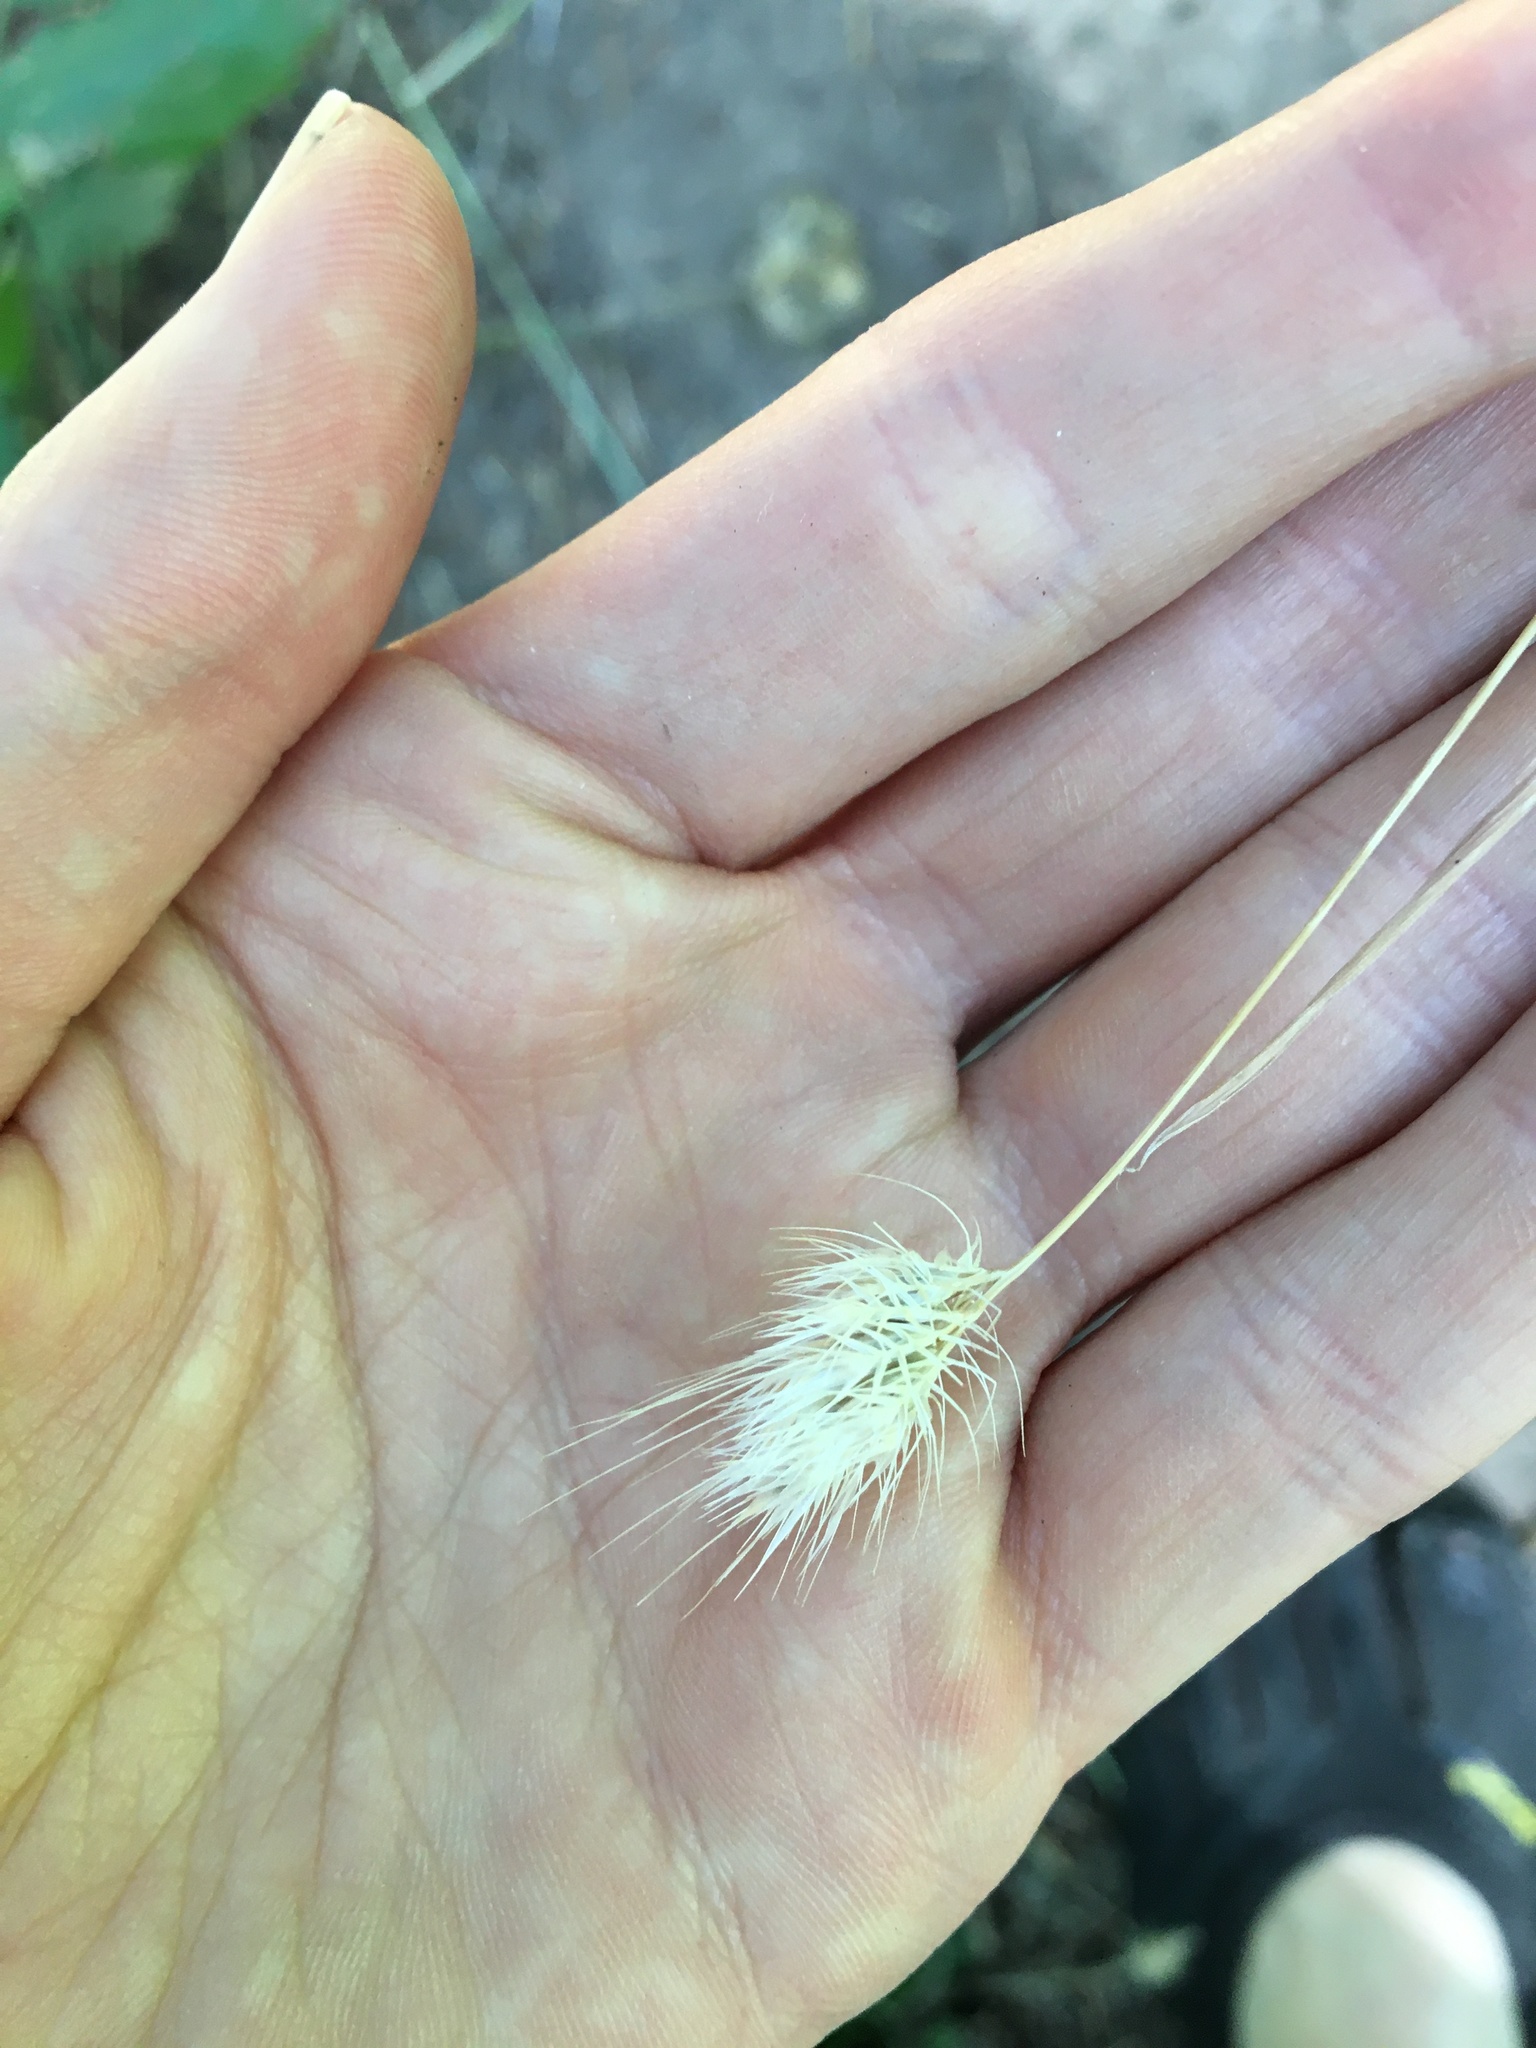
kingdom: Plantae
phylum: Tracheophyta
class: Liliopsida
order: Poales
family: Poaceae
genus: Cynosurus
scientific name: Cynosurus echinatus
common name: Rough dog's-tail
